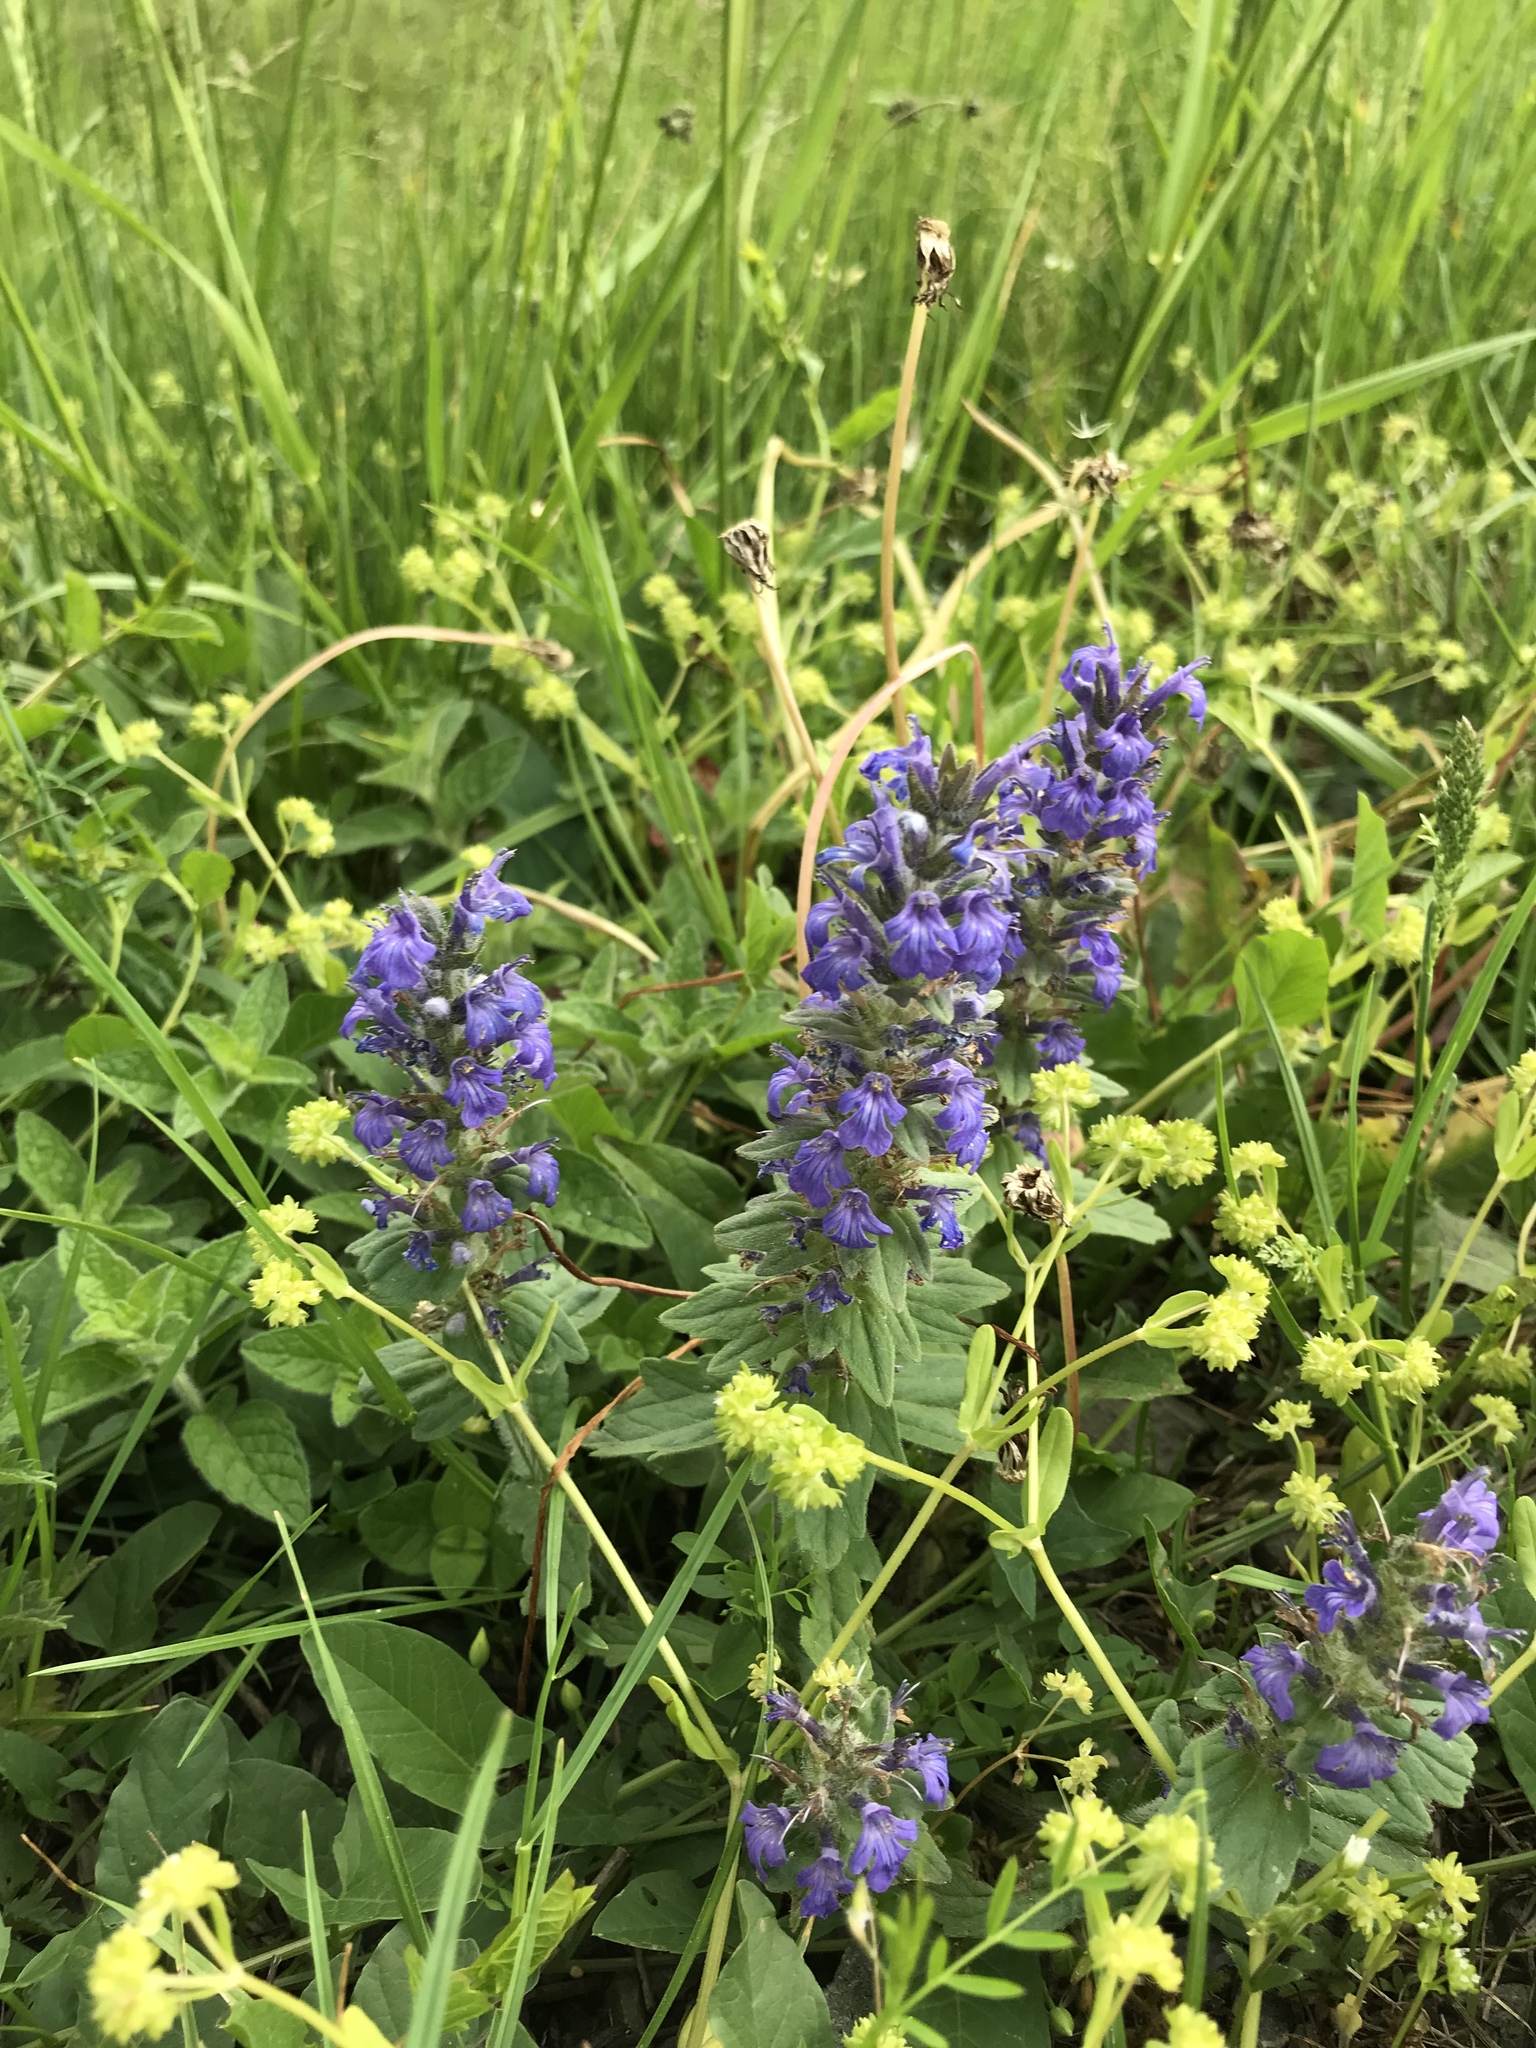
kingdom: Plantae
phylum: Tracheophyta
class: Magnoliopsida
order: Lamiales
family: Lamiaceae
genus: Ajuga
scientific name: Ajuga genevensis
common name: Blue bugle
